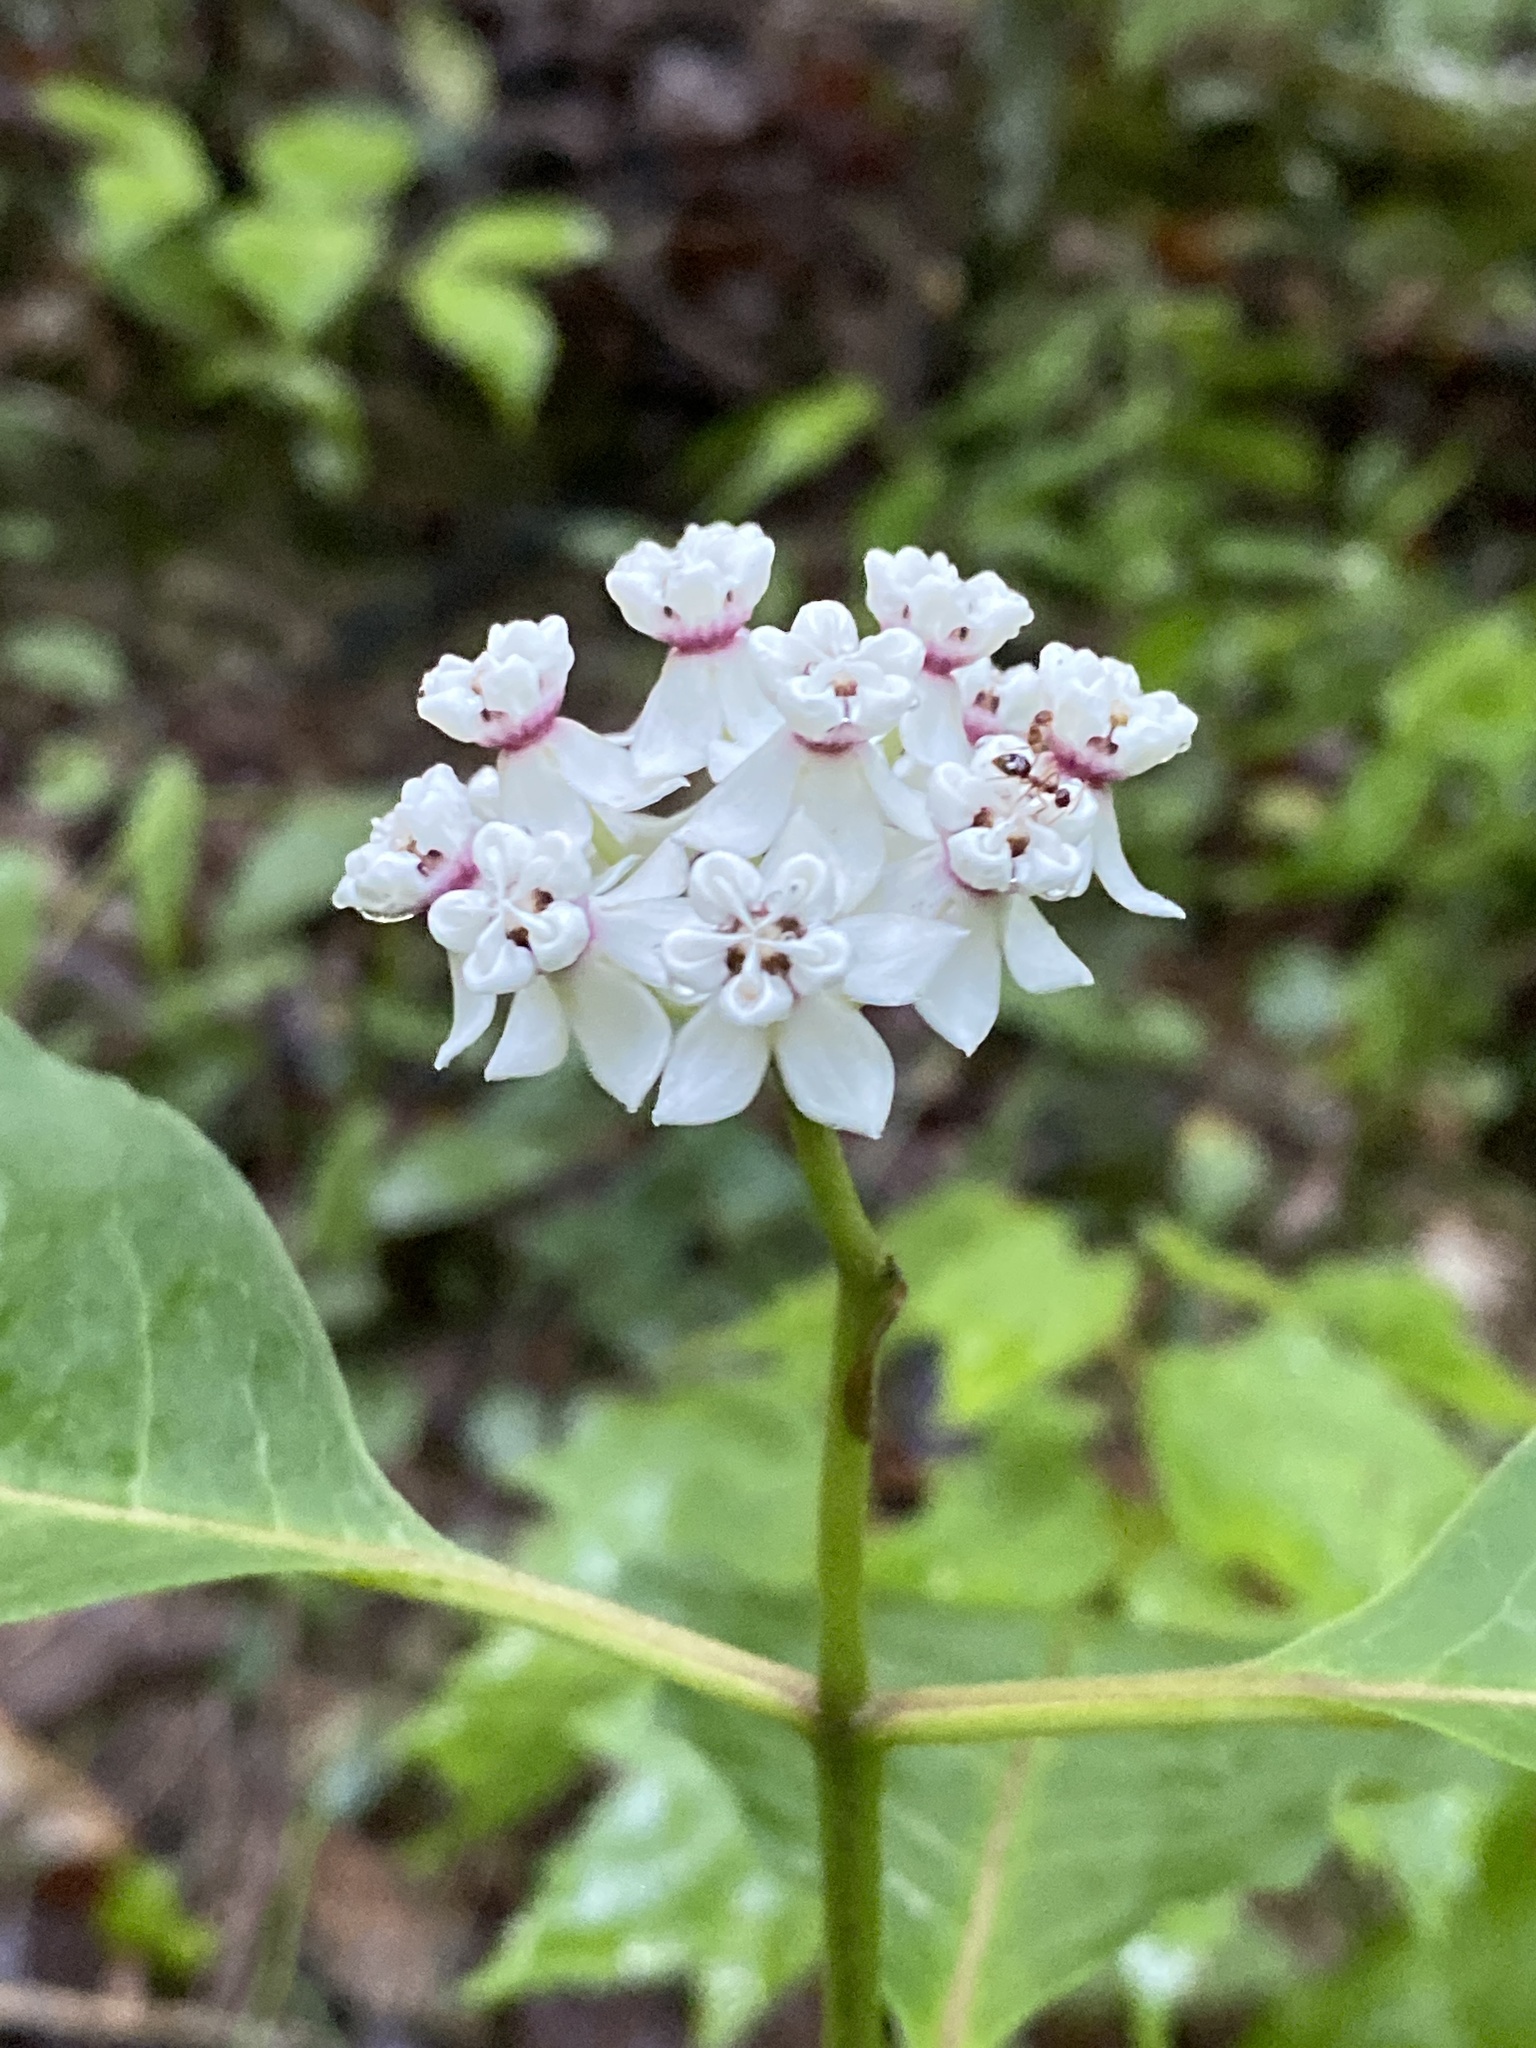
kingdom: Plantae
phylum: Tracheophyta
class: Magnoliopsida
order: Gentianales
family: Apocynaceae
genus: Asclepias
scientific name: Asclepias variegata
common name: Variegated milkweed
